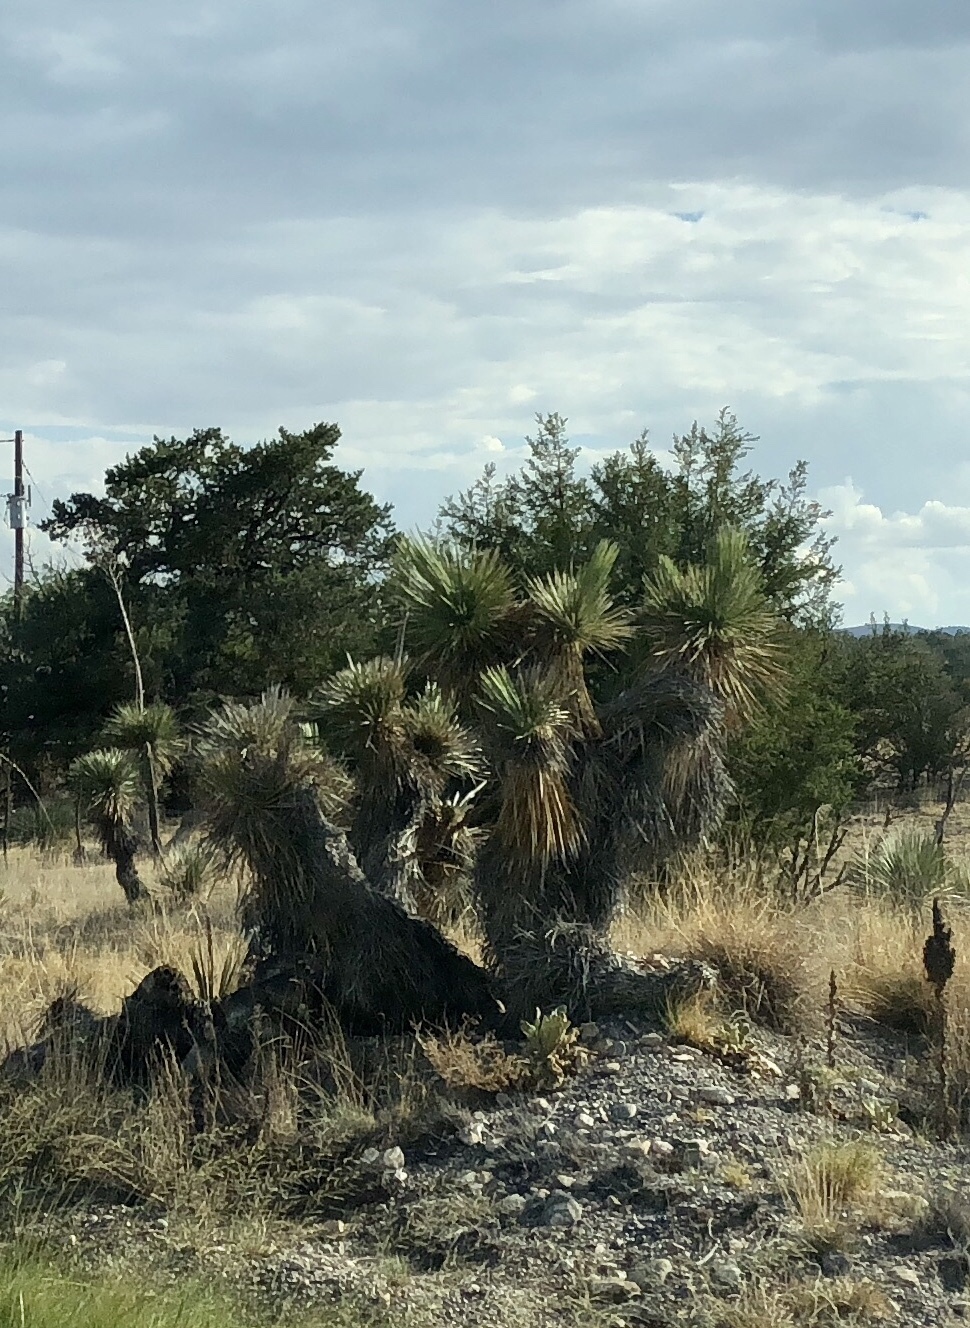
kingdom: Plantae
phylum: Tracheophyta
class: Liliopsida
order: Asparagales
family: Asparagaceae
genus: Yucca
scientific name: Yucca elata
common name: Palmella
